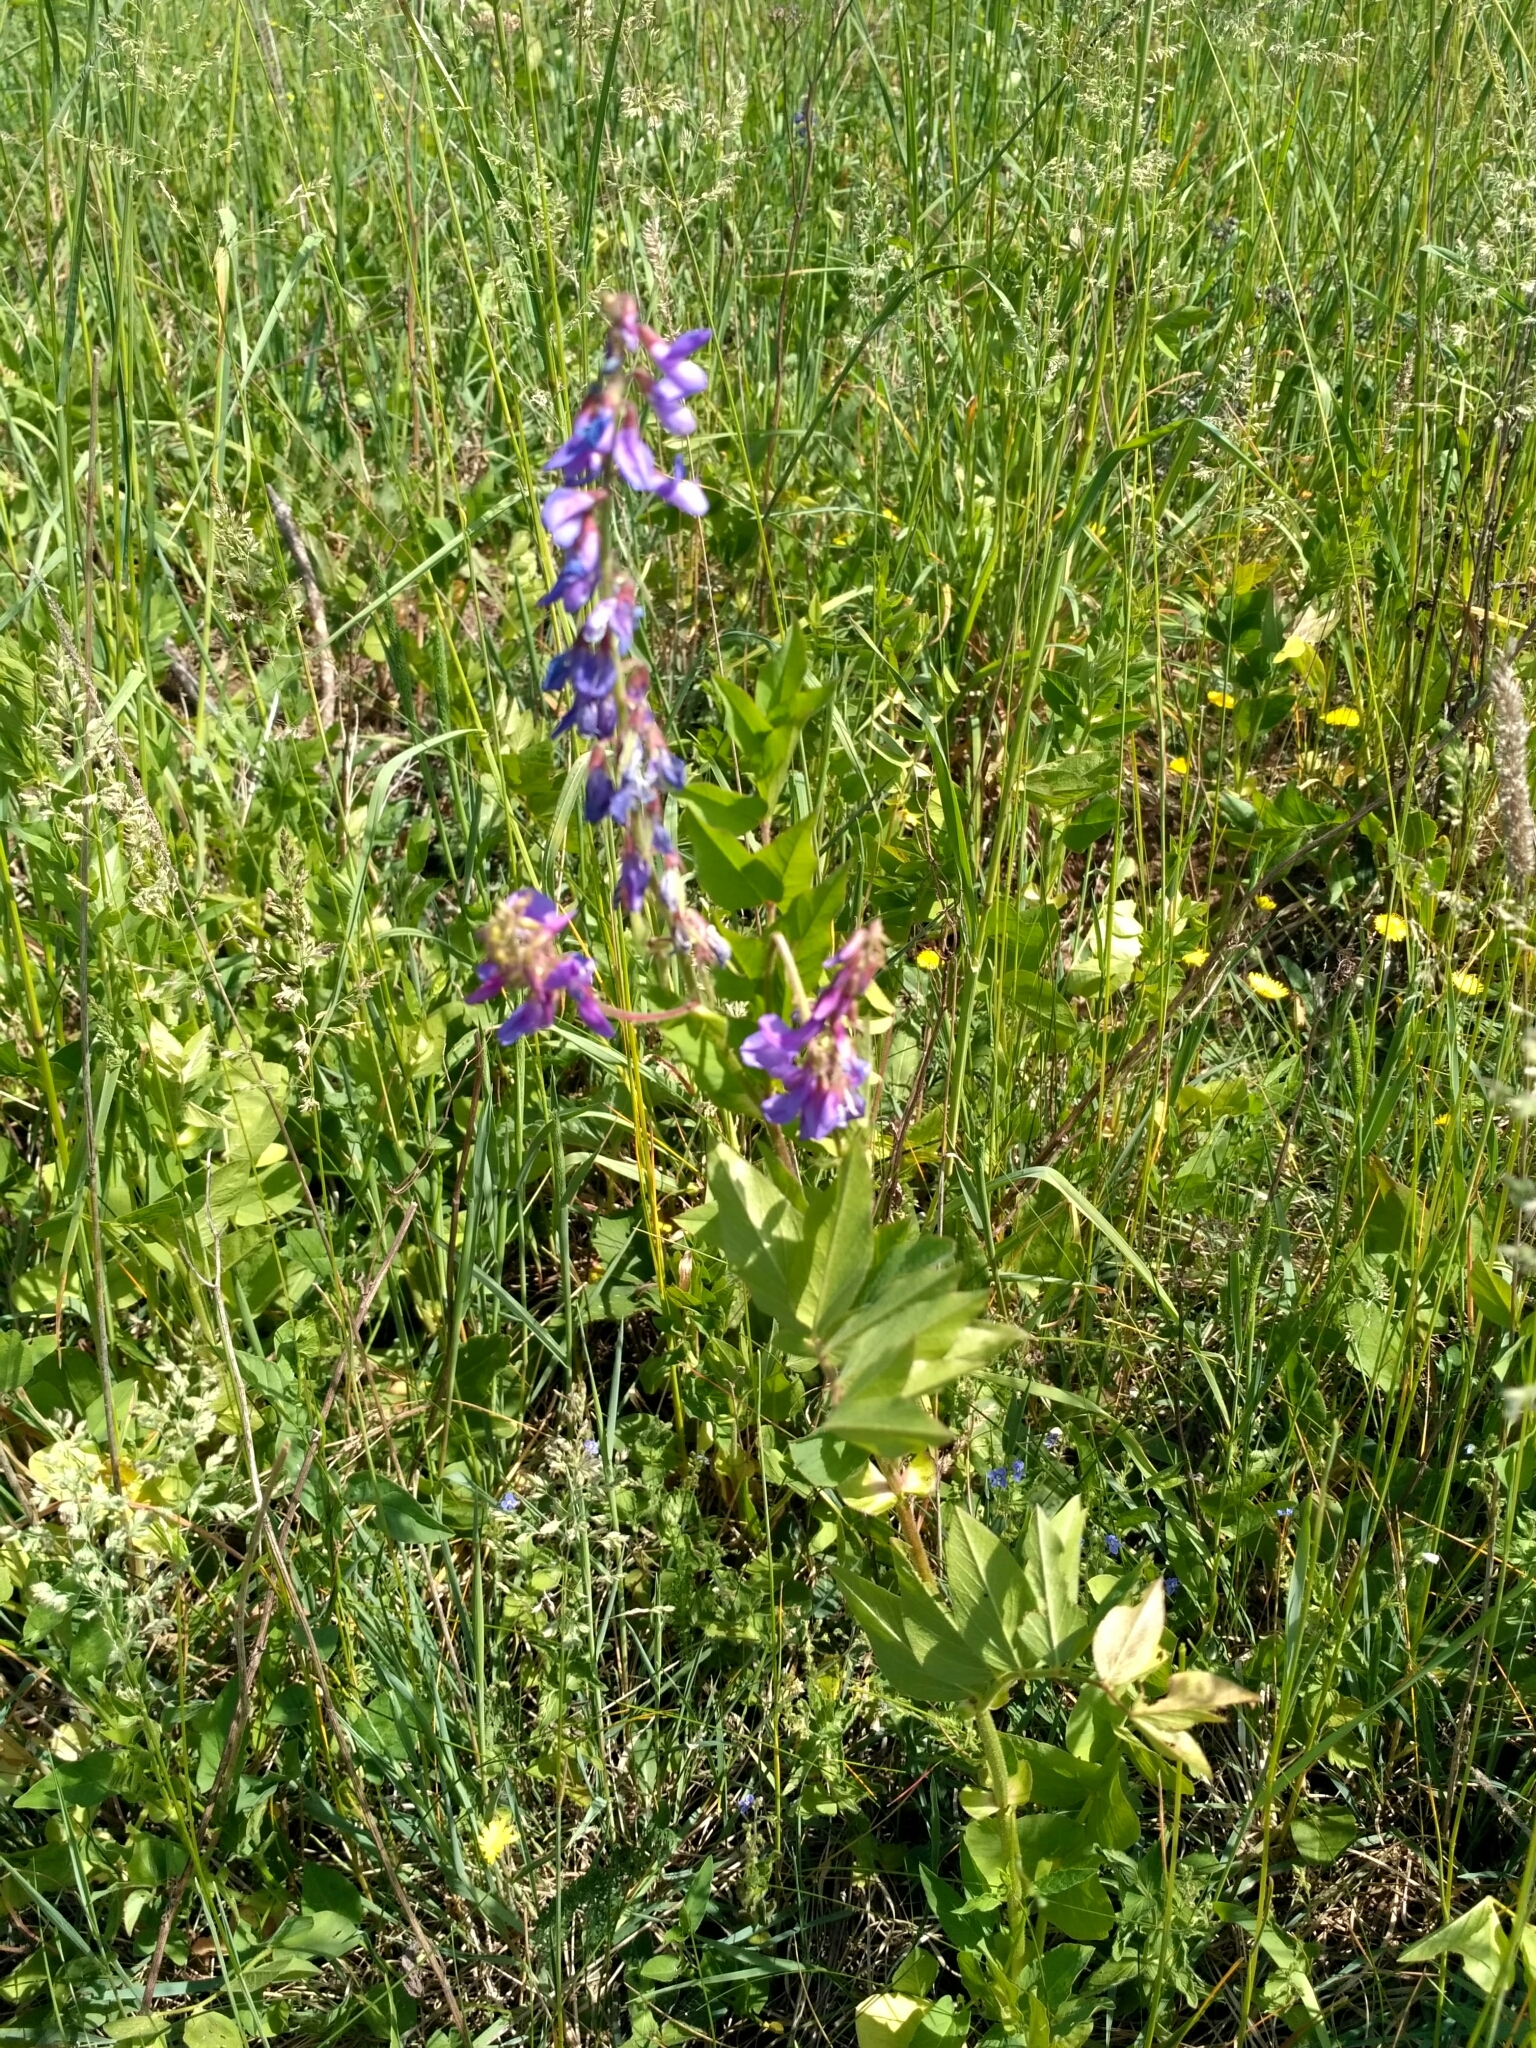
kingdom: Plantae
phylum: Tracheophyta
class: Magnoliopsida
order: Fabales
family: Fabaceae
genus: Galega
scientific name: Galega orientalis
